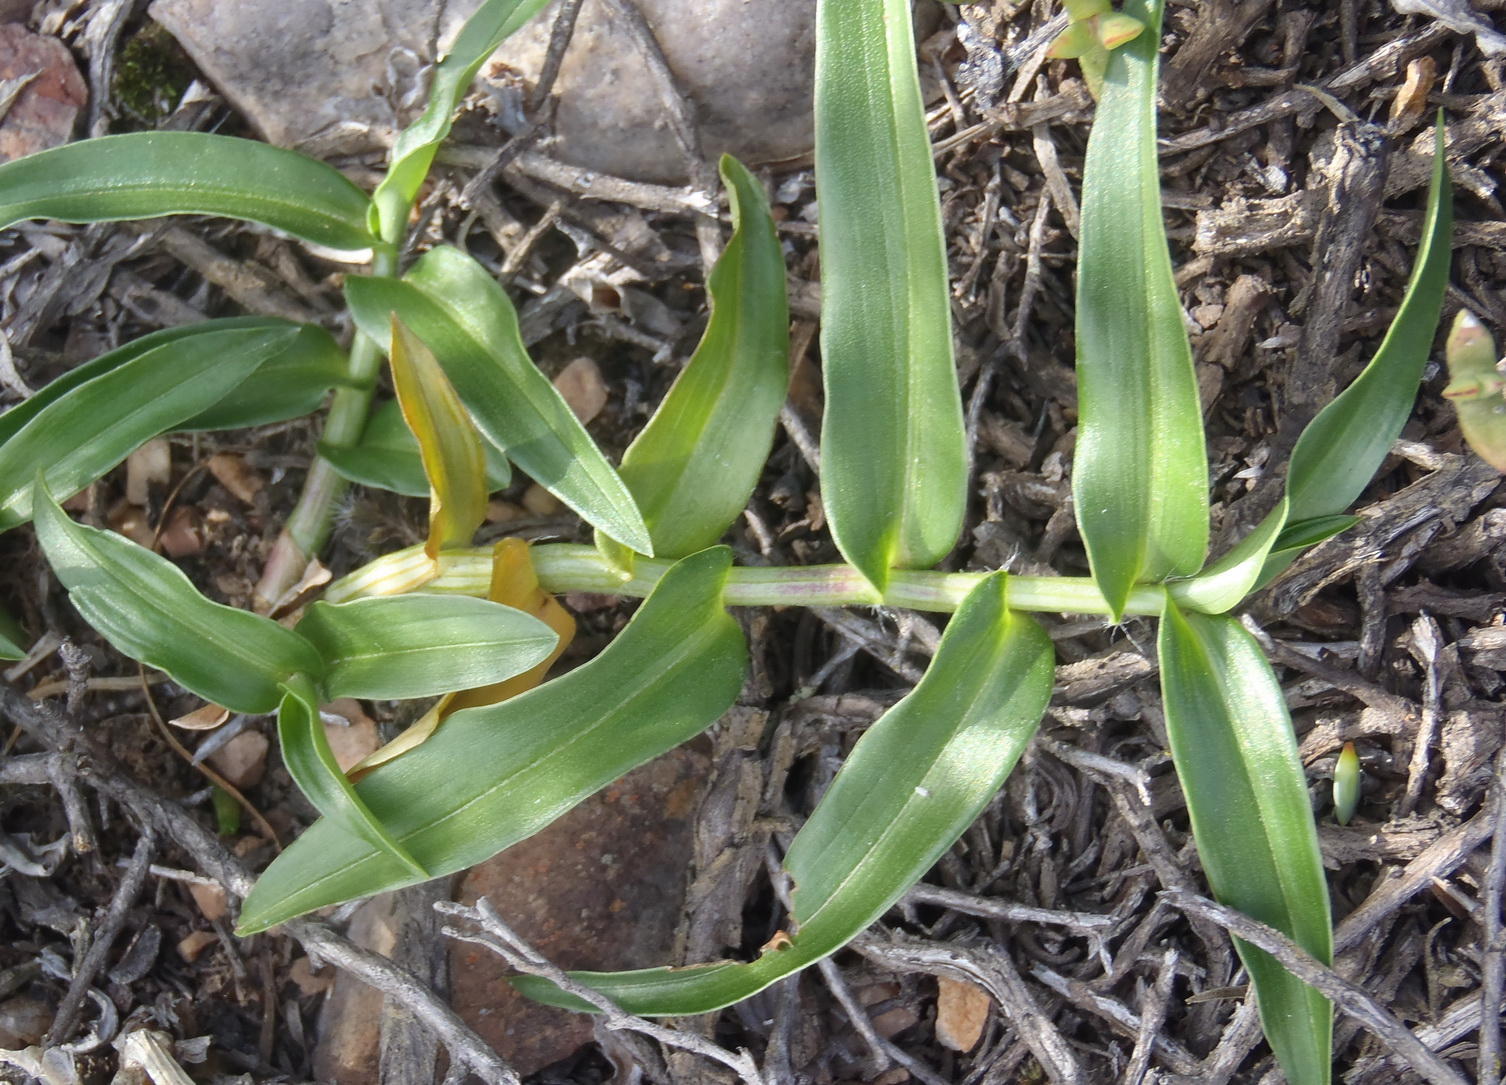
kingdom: Plantae
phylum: Tracheophyta
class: Liliopsida
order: Commelinales
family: Commelinaceae
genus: Commelina
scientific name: Commelina africana
